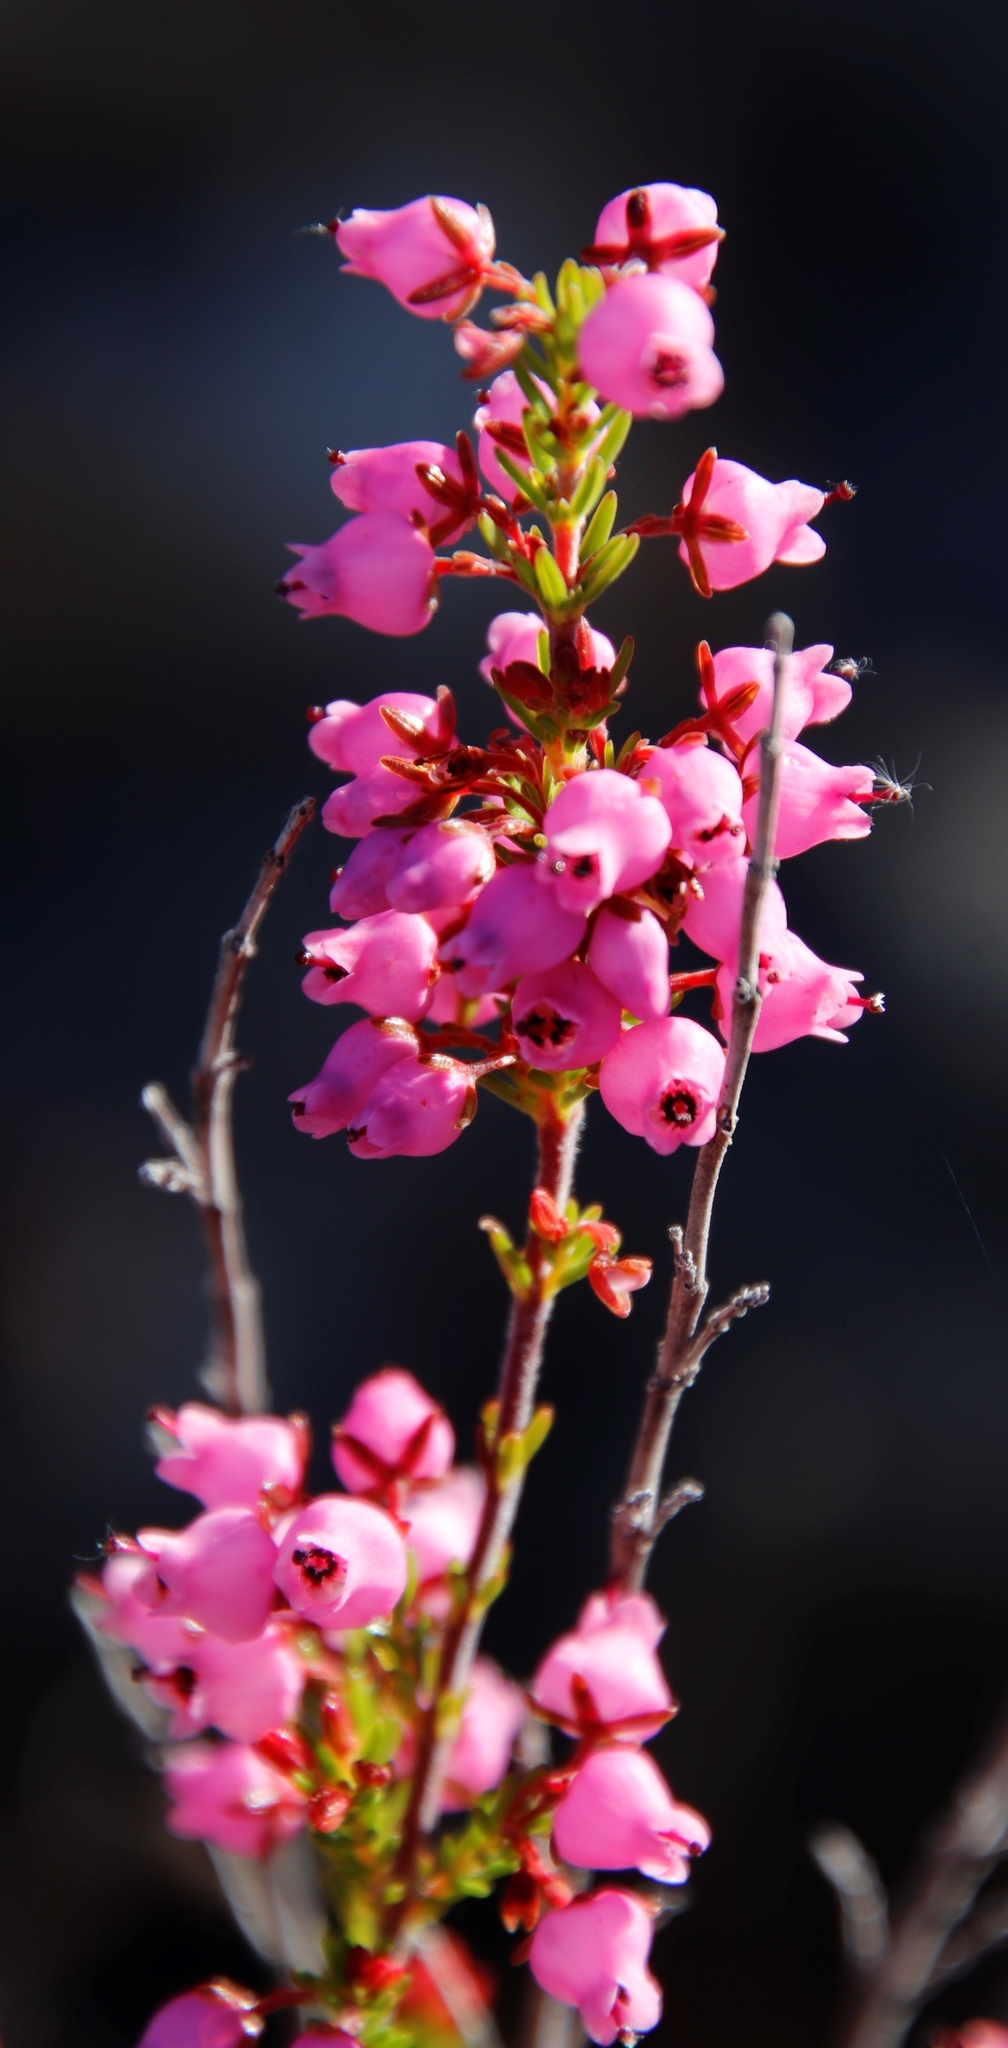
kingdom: Plantae
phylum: Tracheophyta
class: Magnoliopsida
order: Ericales
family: Ericaceae
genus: Erica
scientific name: Erica lateralis
